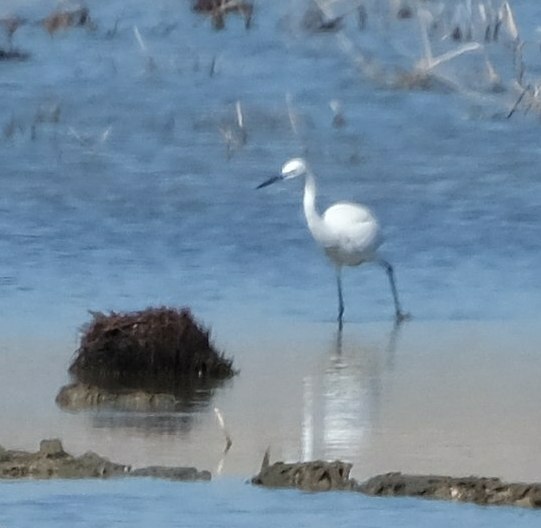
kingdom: Animalia
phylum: Chordata
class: Aves
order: Pelecaniformes
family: Ardeidae
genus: Egretta
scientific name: Egretta garzetta
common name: Little egret
